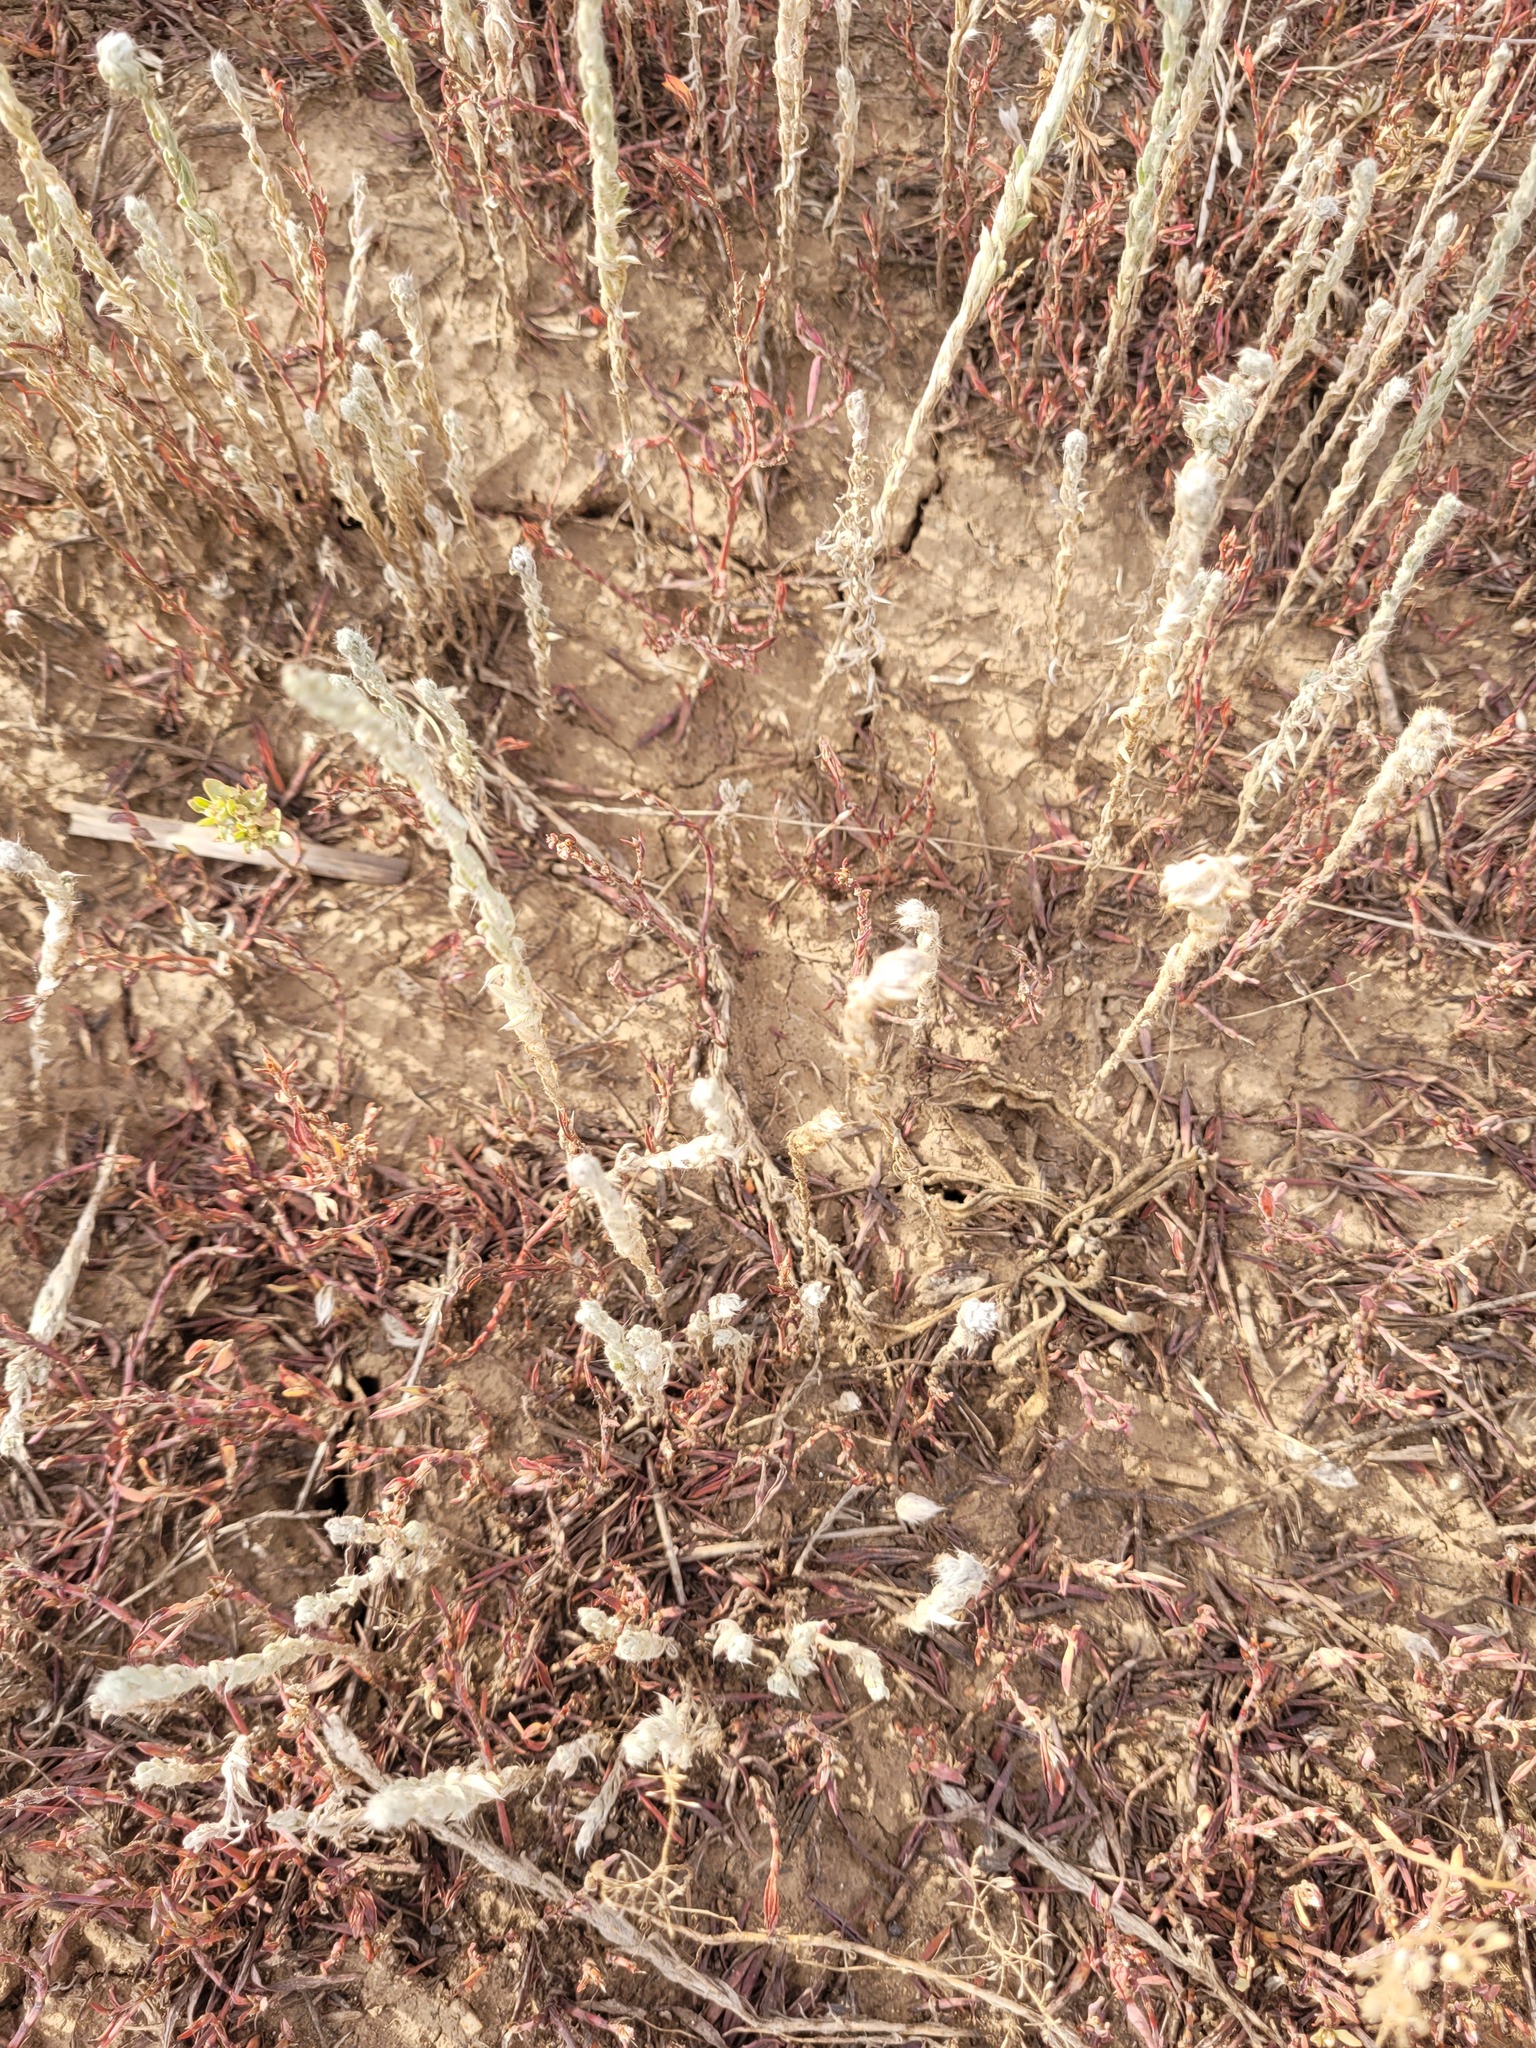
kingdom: Plantae
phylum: Tracheophyta
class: Magnoliopsida
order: Caryophyllales
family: Amaranthaceae
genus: Sedobassia
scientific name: Sedobassia sedoides
